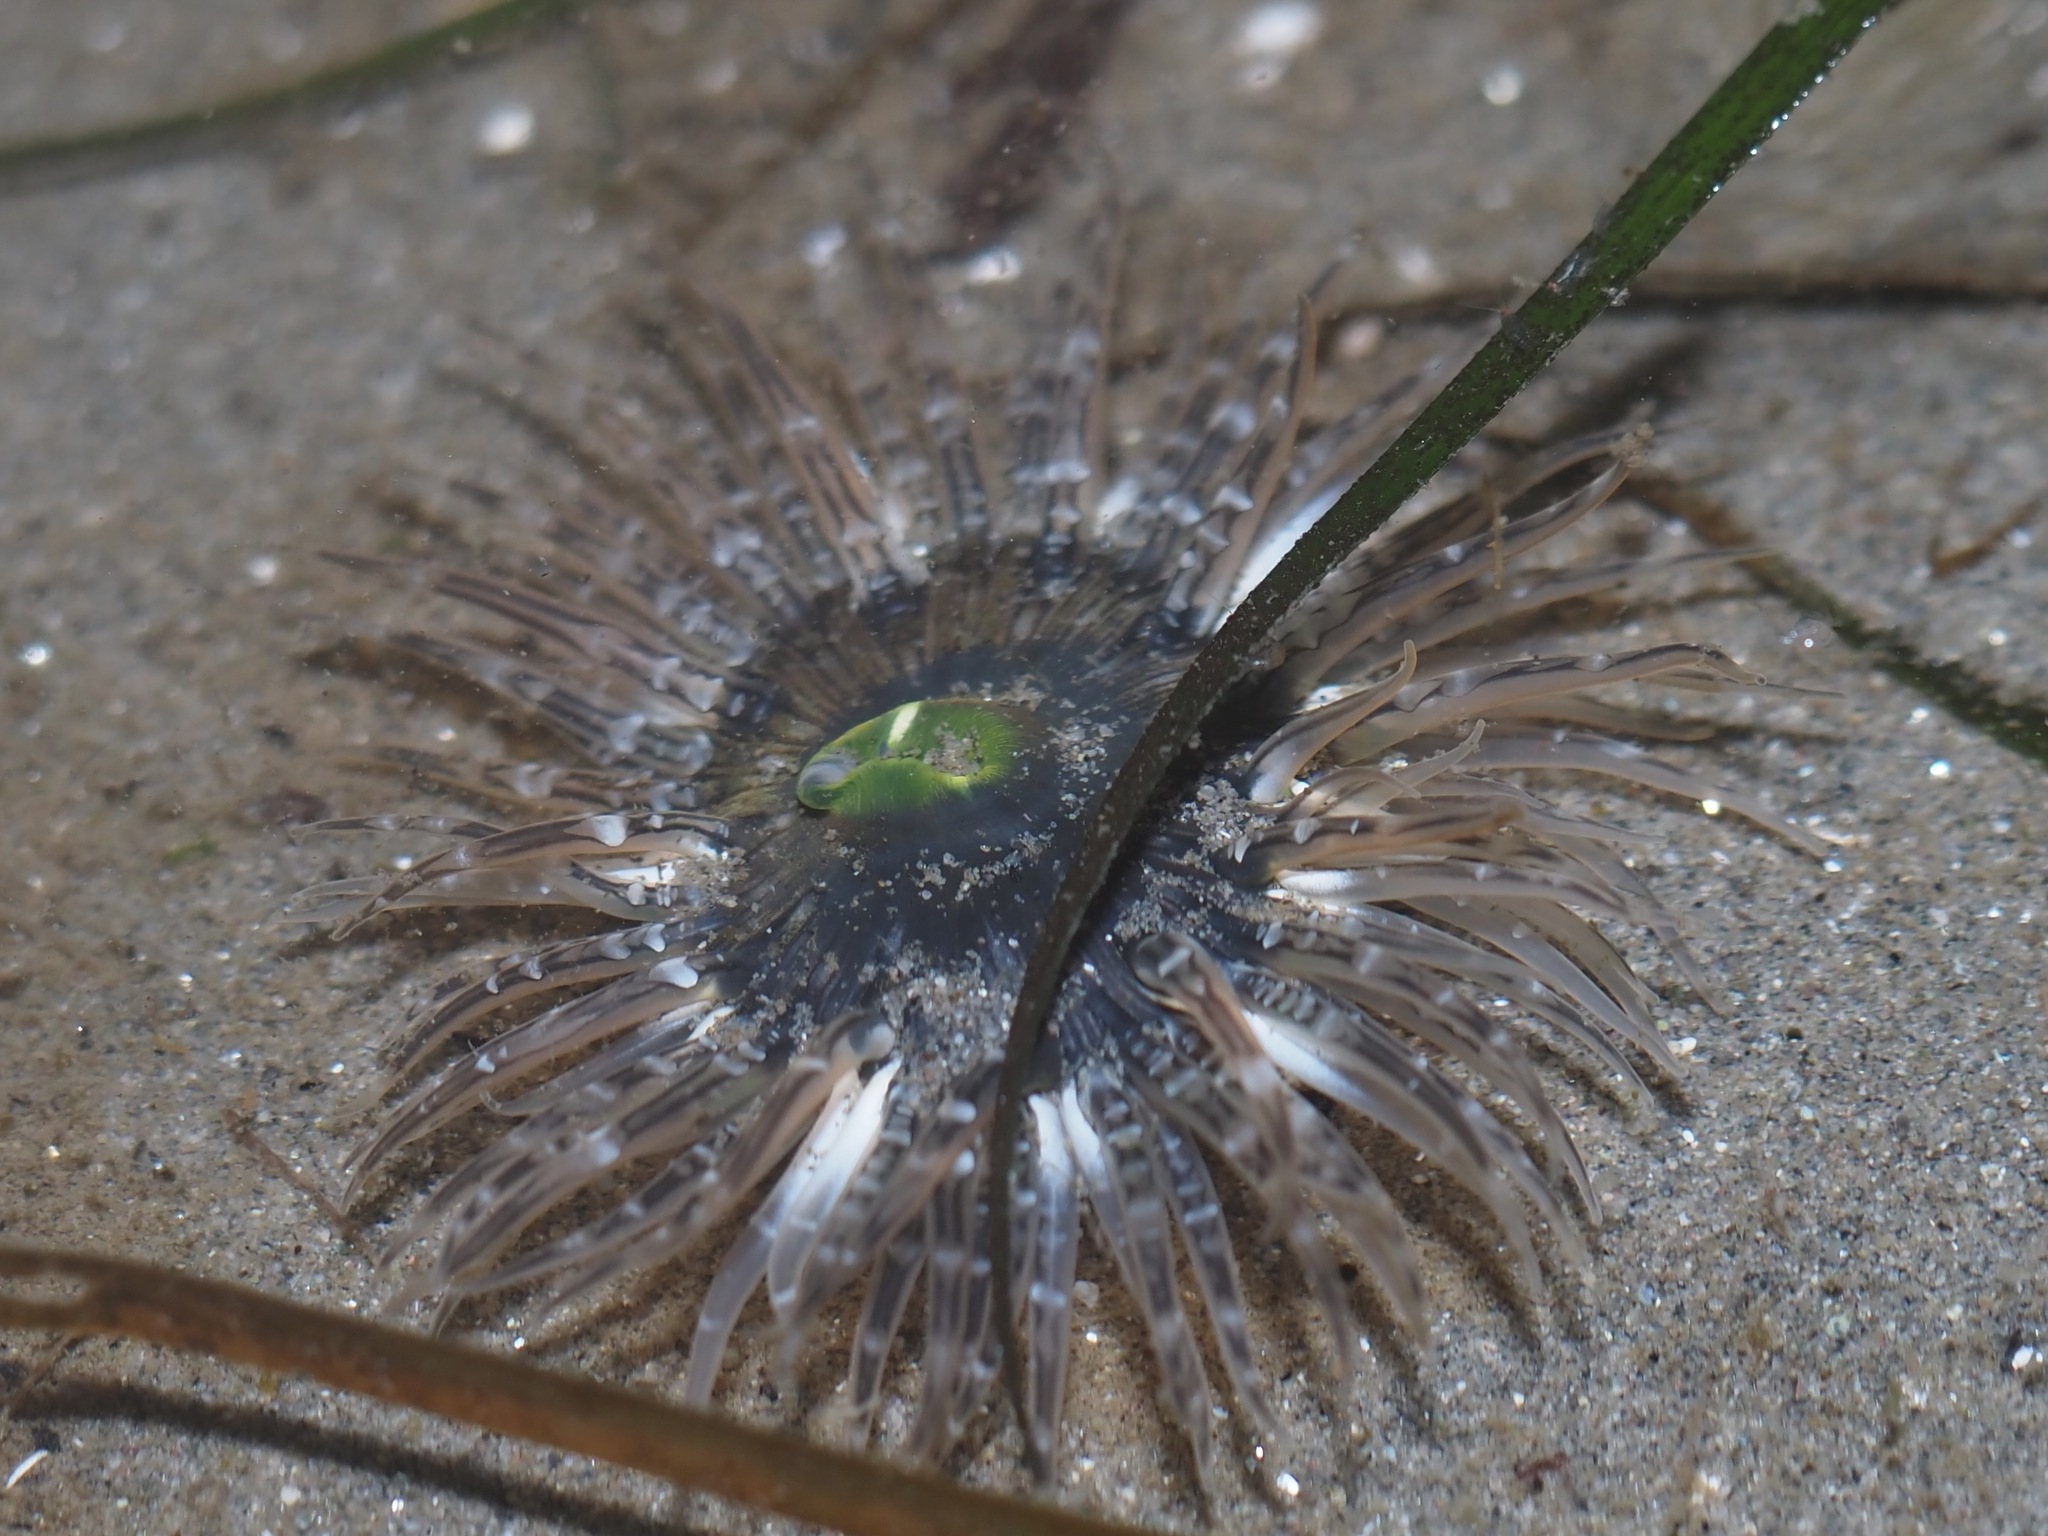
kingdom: Animalia
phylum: Cnidaria
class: Anthozoa
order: Actiniaria
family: Actiniidae
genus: Anthopleura
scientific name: Anthopleura artemisia
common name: Buried sea anemone
